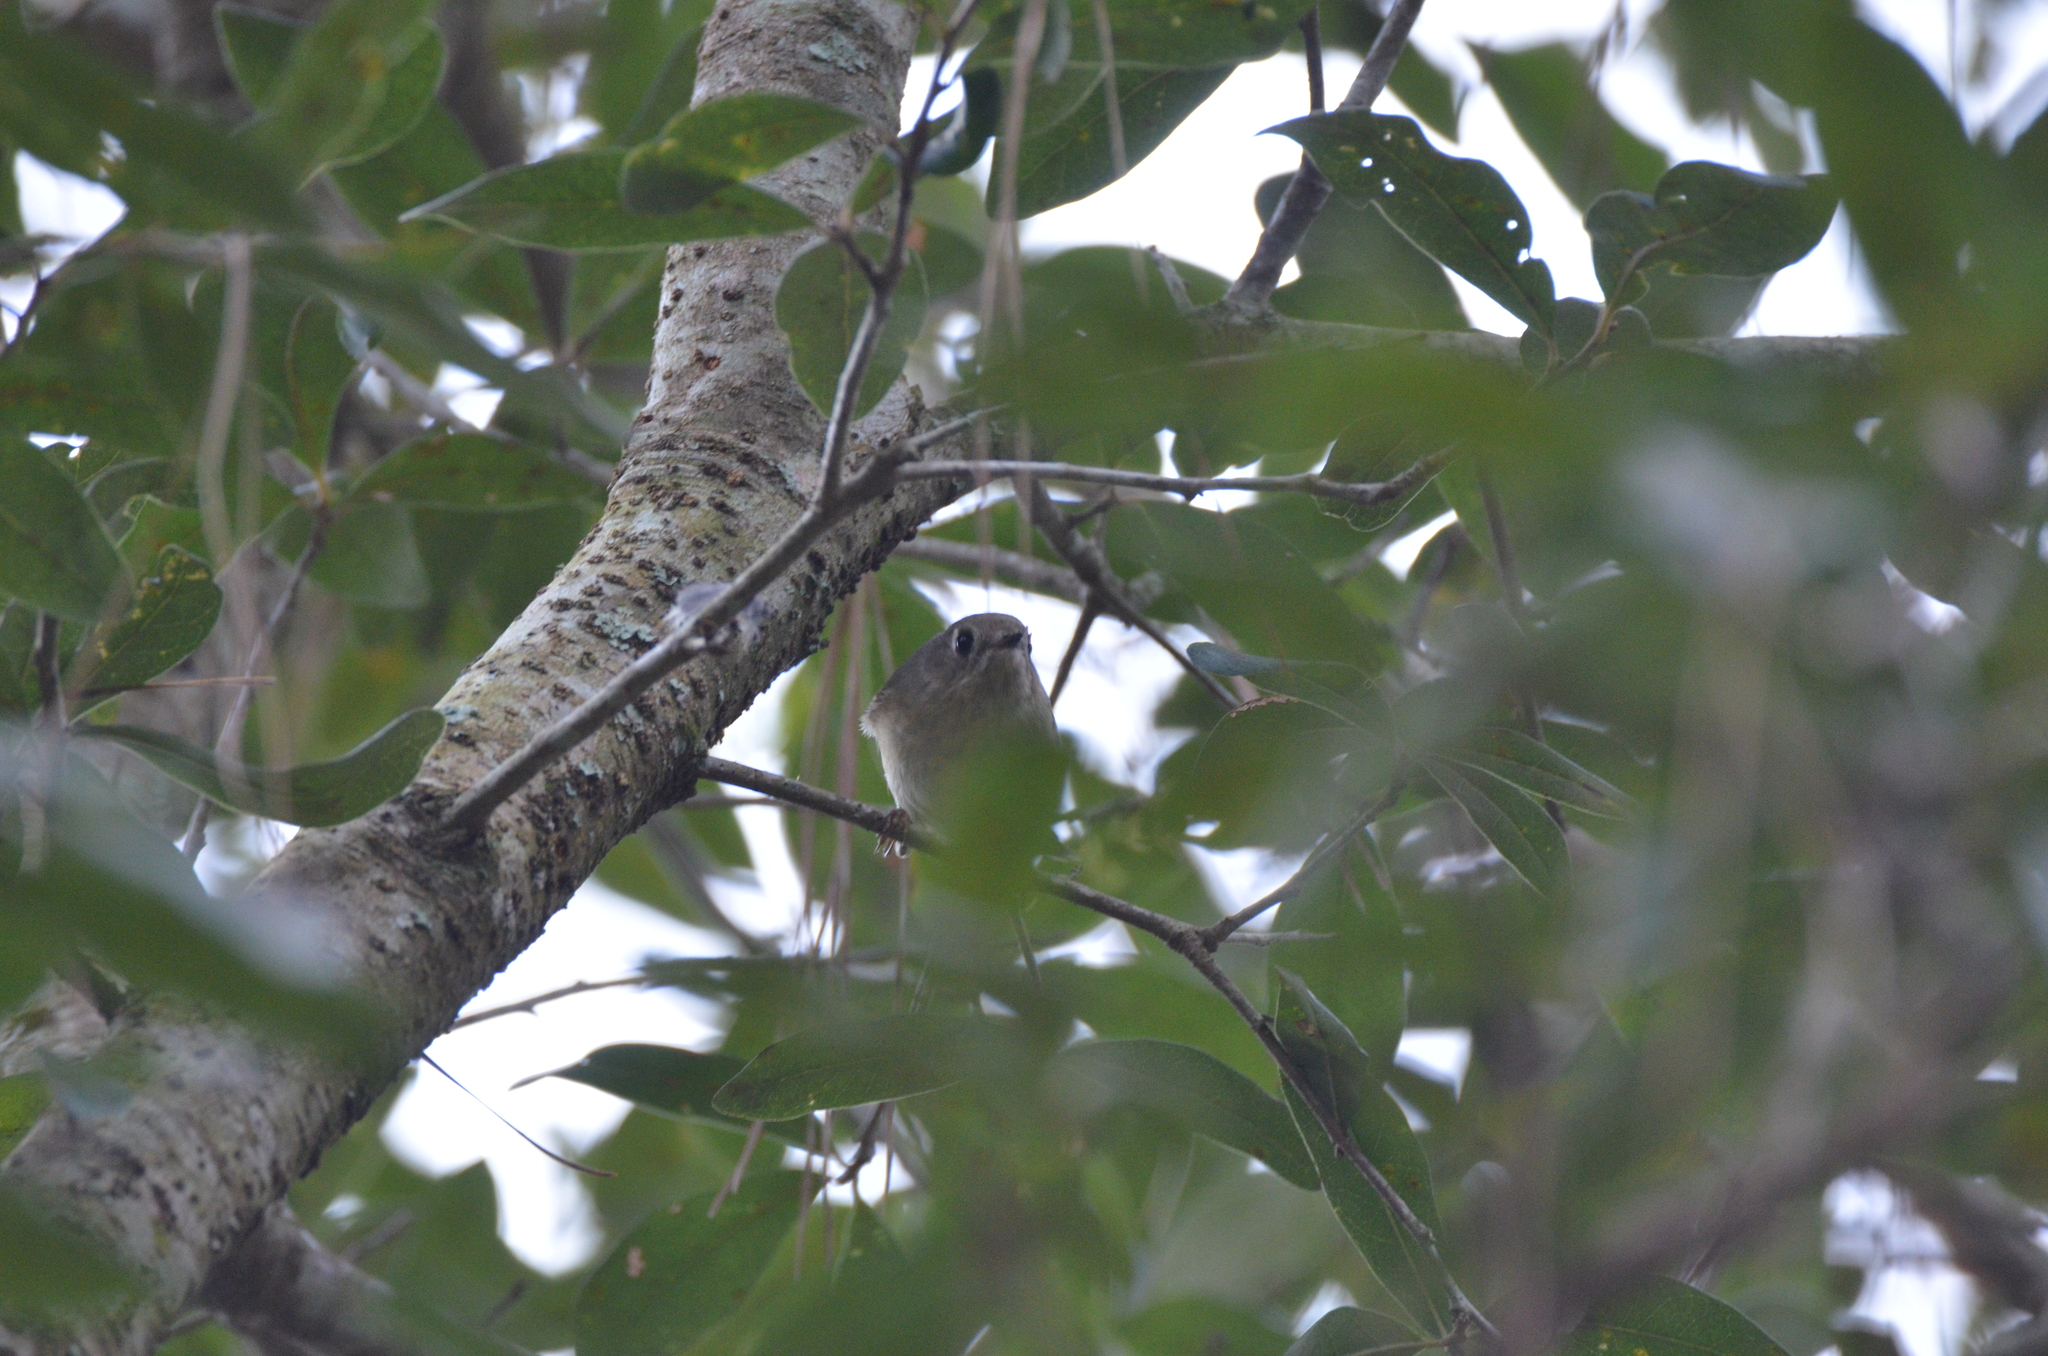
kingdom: Animalia
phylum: Chordata
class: Aves
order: Passeriformes
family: Regulidae
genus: Regulus
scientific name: Regulus calendula
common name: Ruby-crowned kinglet
